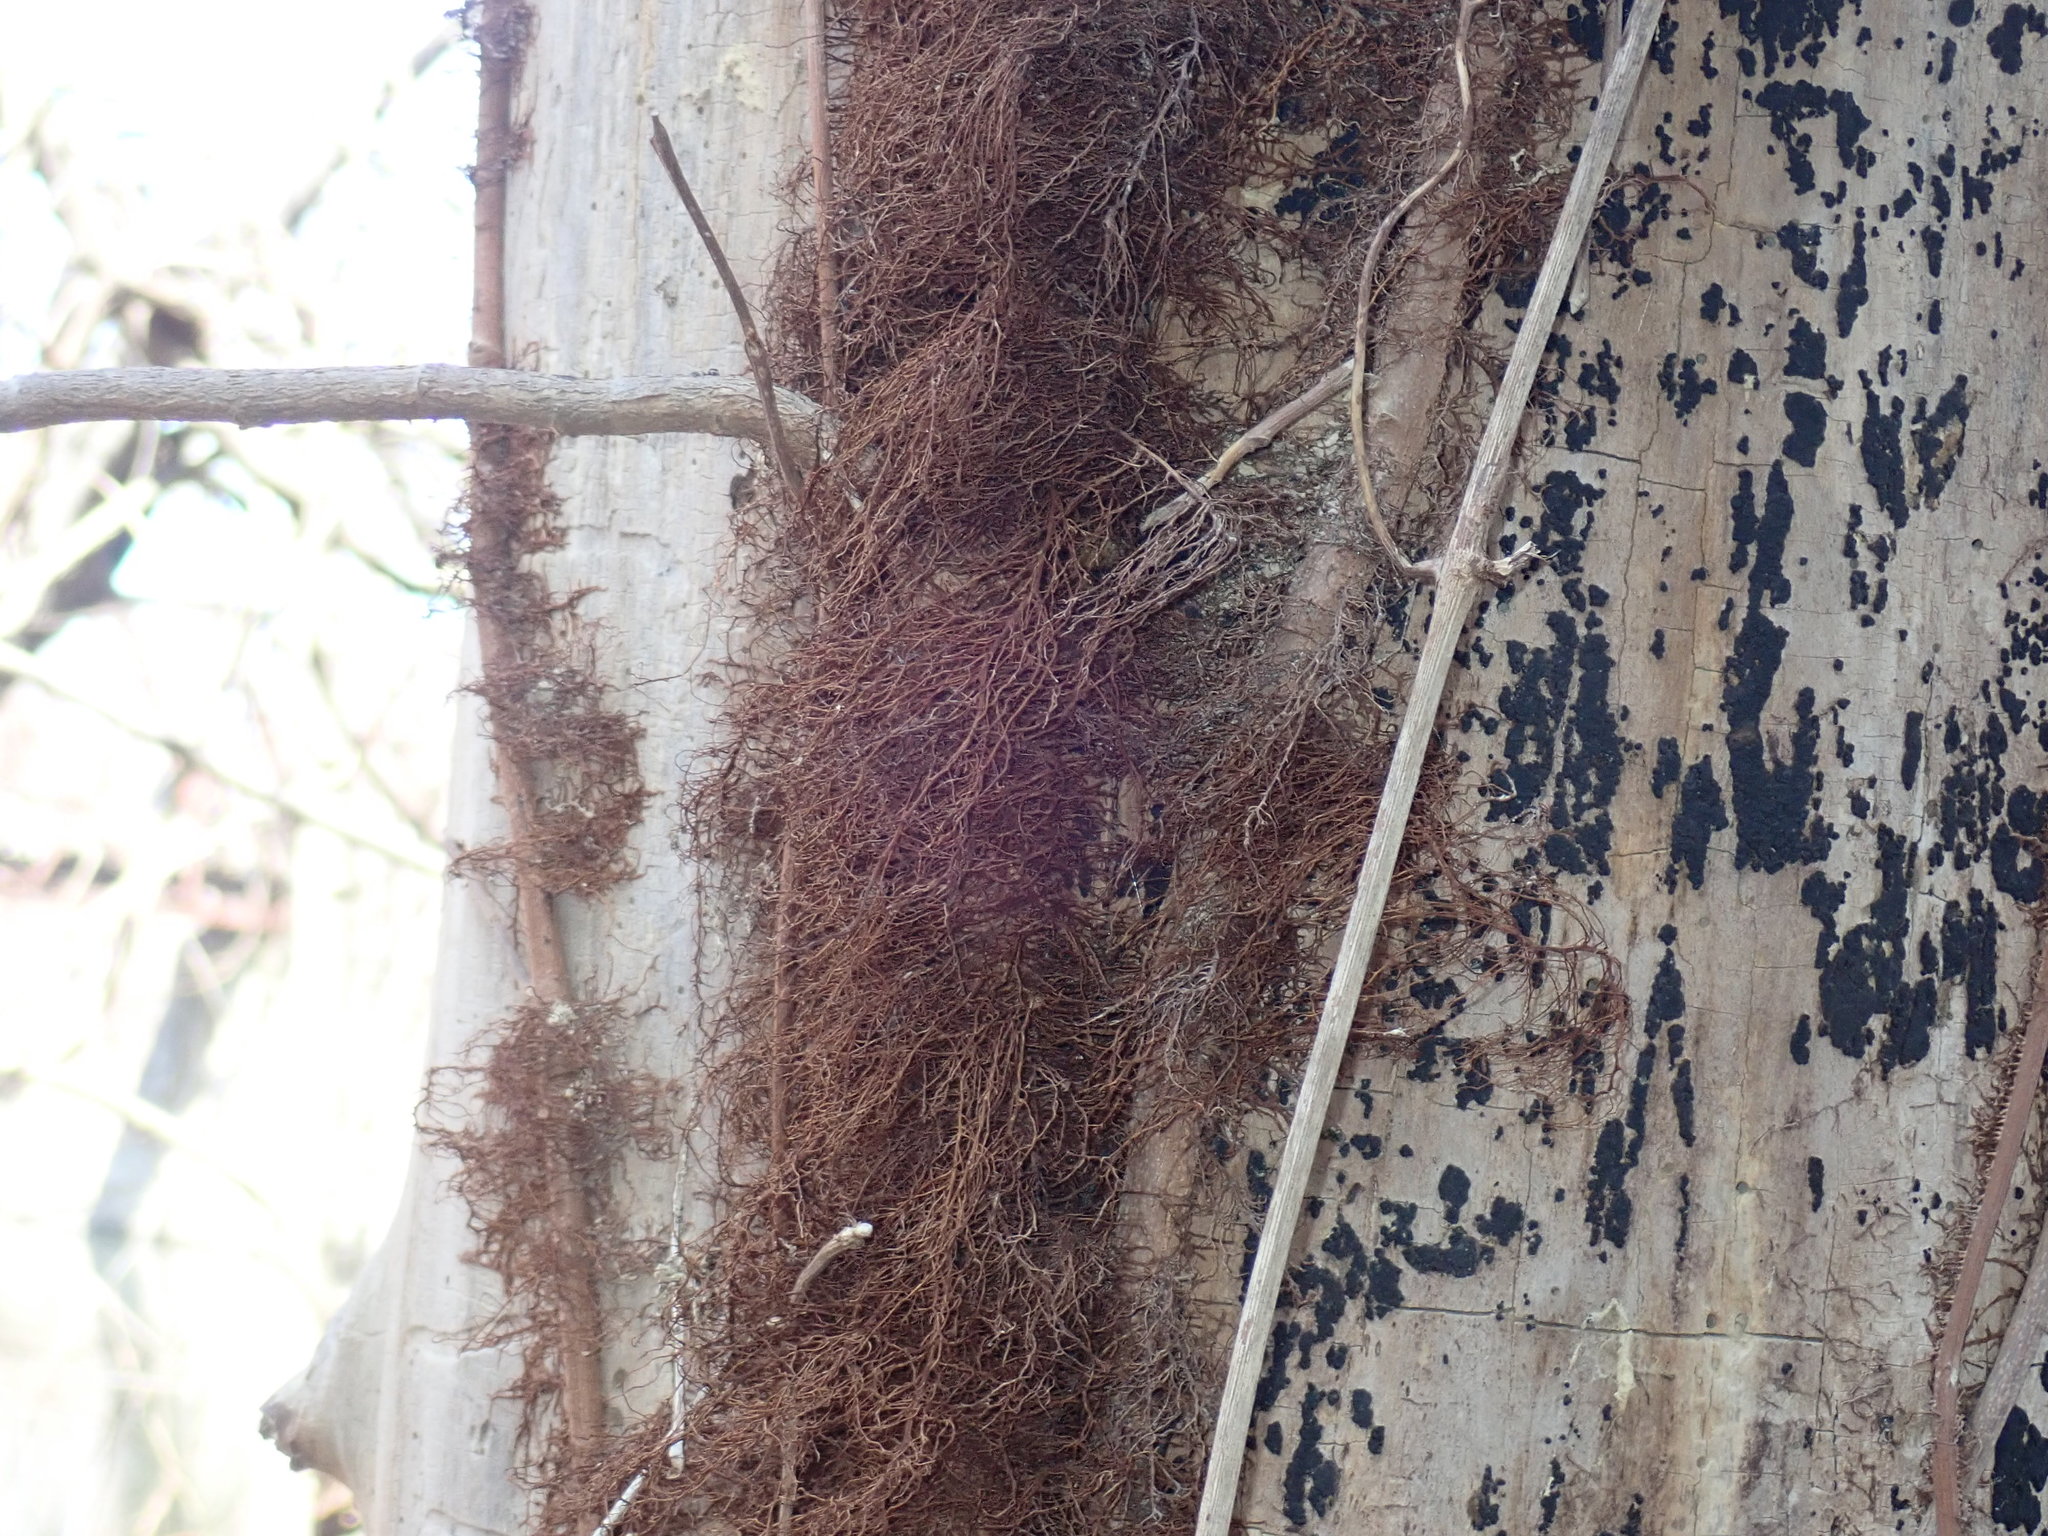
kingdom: Plantae
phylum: Tracheophyta
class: Magnoliopsida
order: Sapindales
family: Anacardiaceae
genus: Toxicodendron
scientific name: Toxicodendron radicans
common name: Poison ivy
